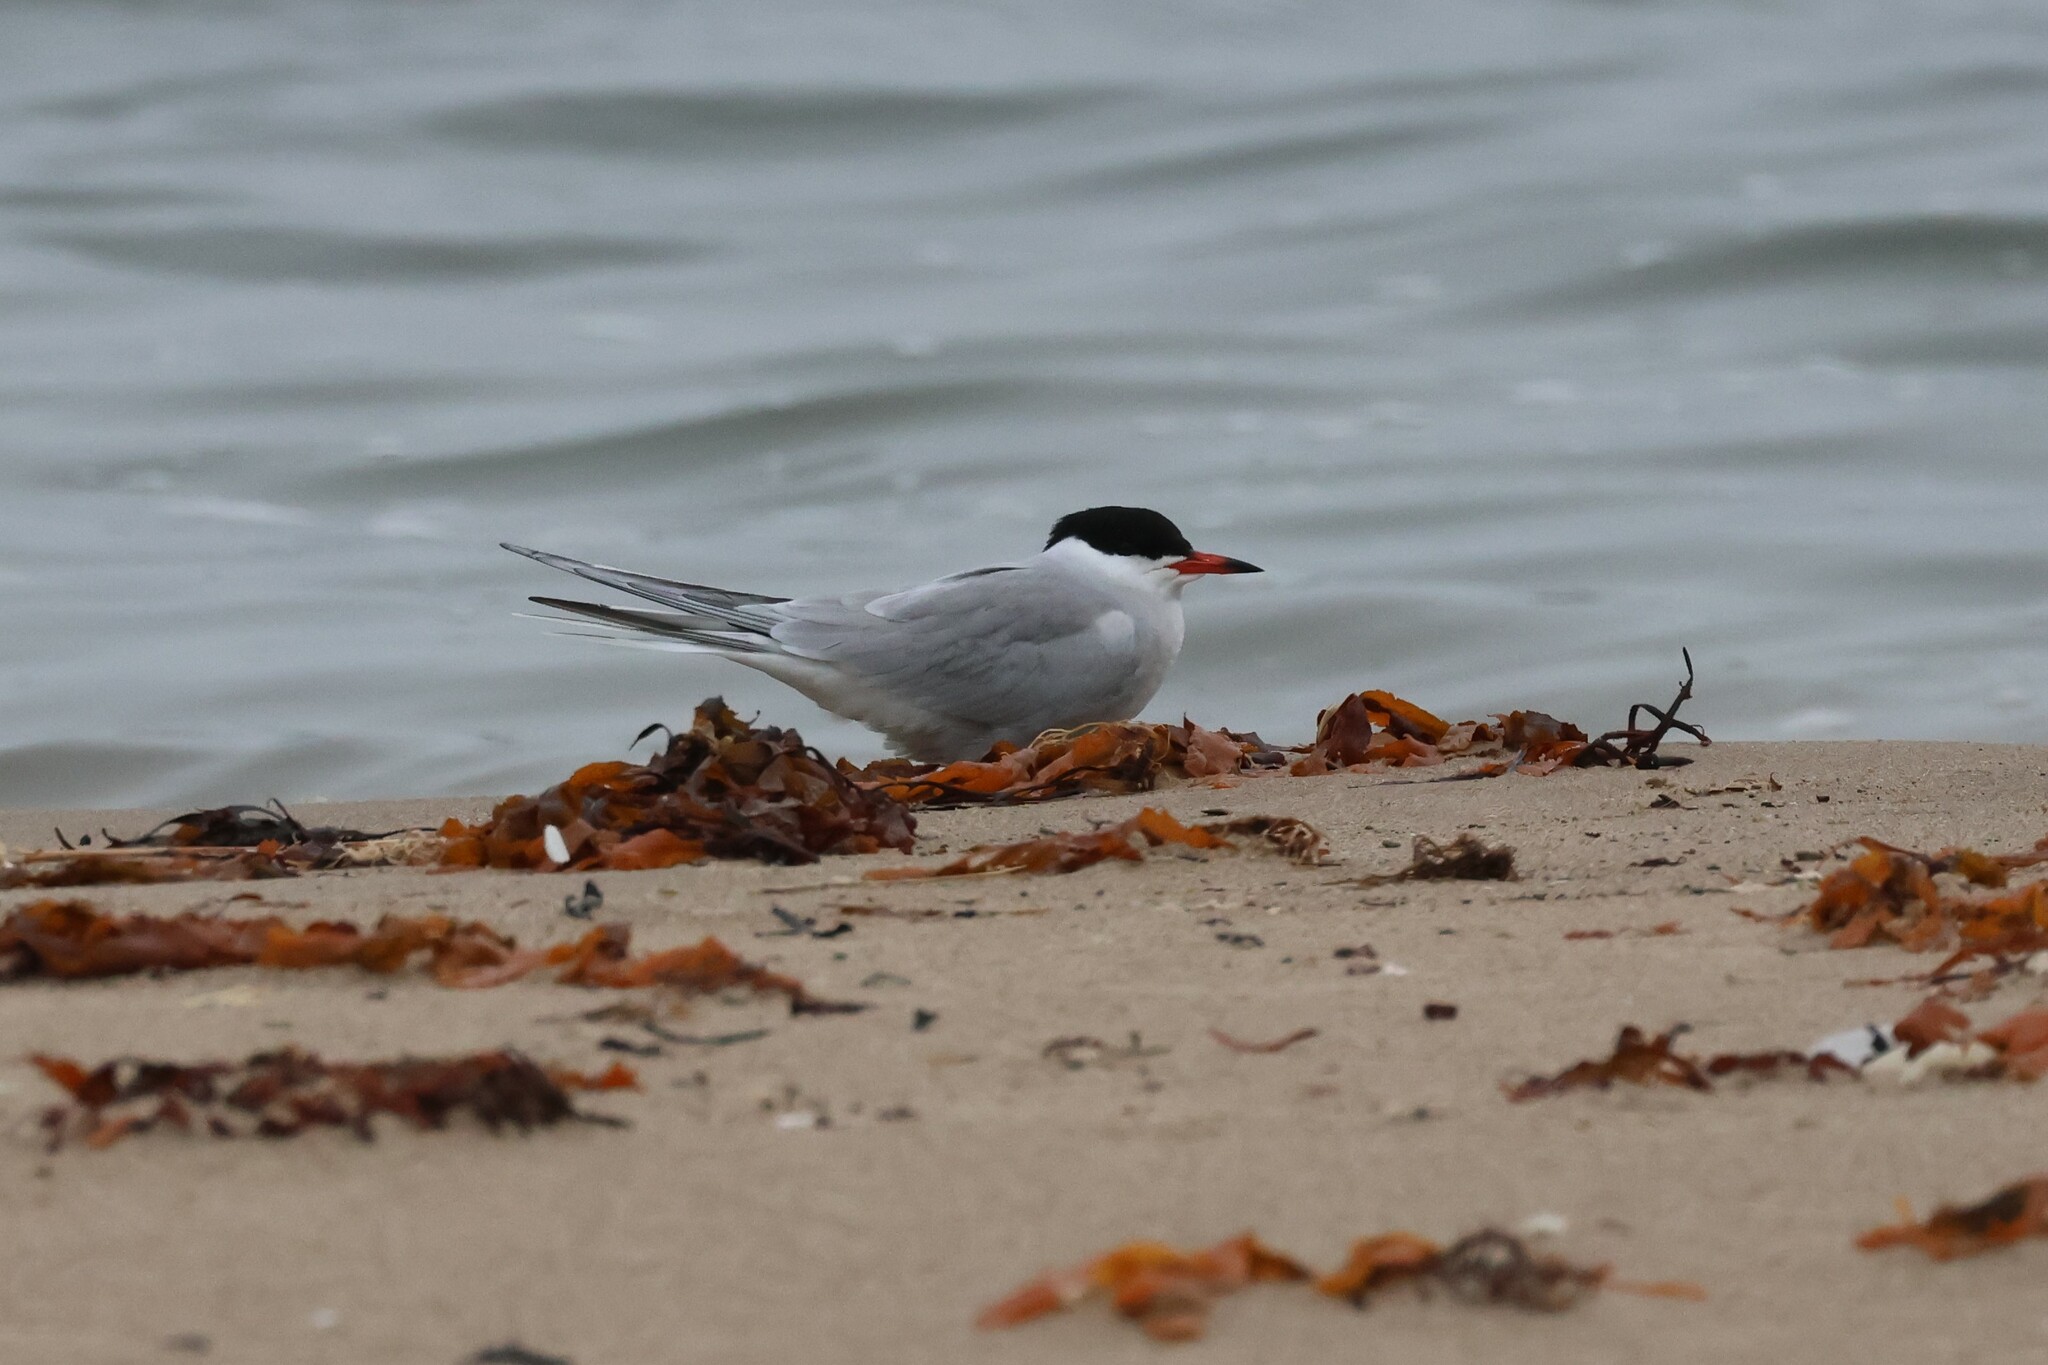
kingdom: Animalia
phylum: Chordata
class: Aves
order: Charadriiformes
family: Laridae
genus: Sterna
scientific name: Sterna hirundo
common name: Common tern
